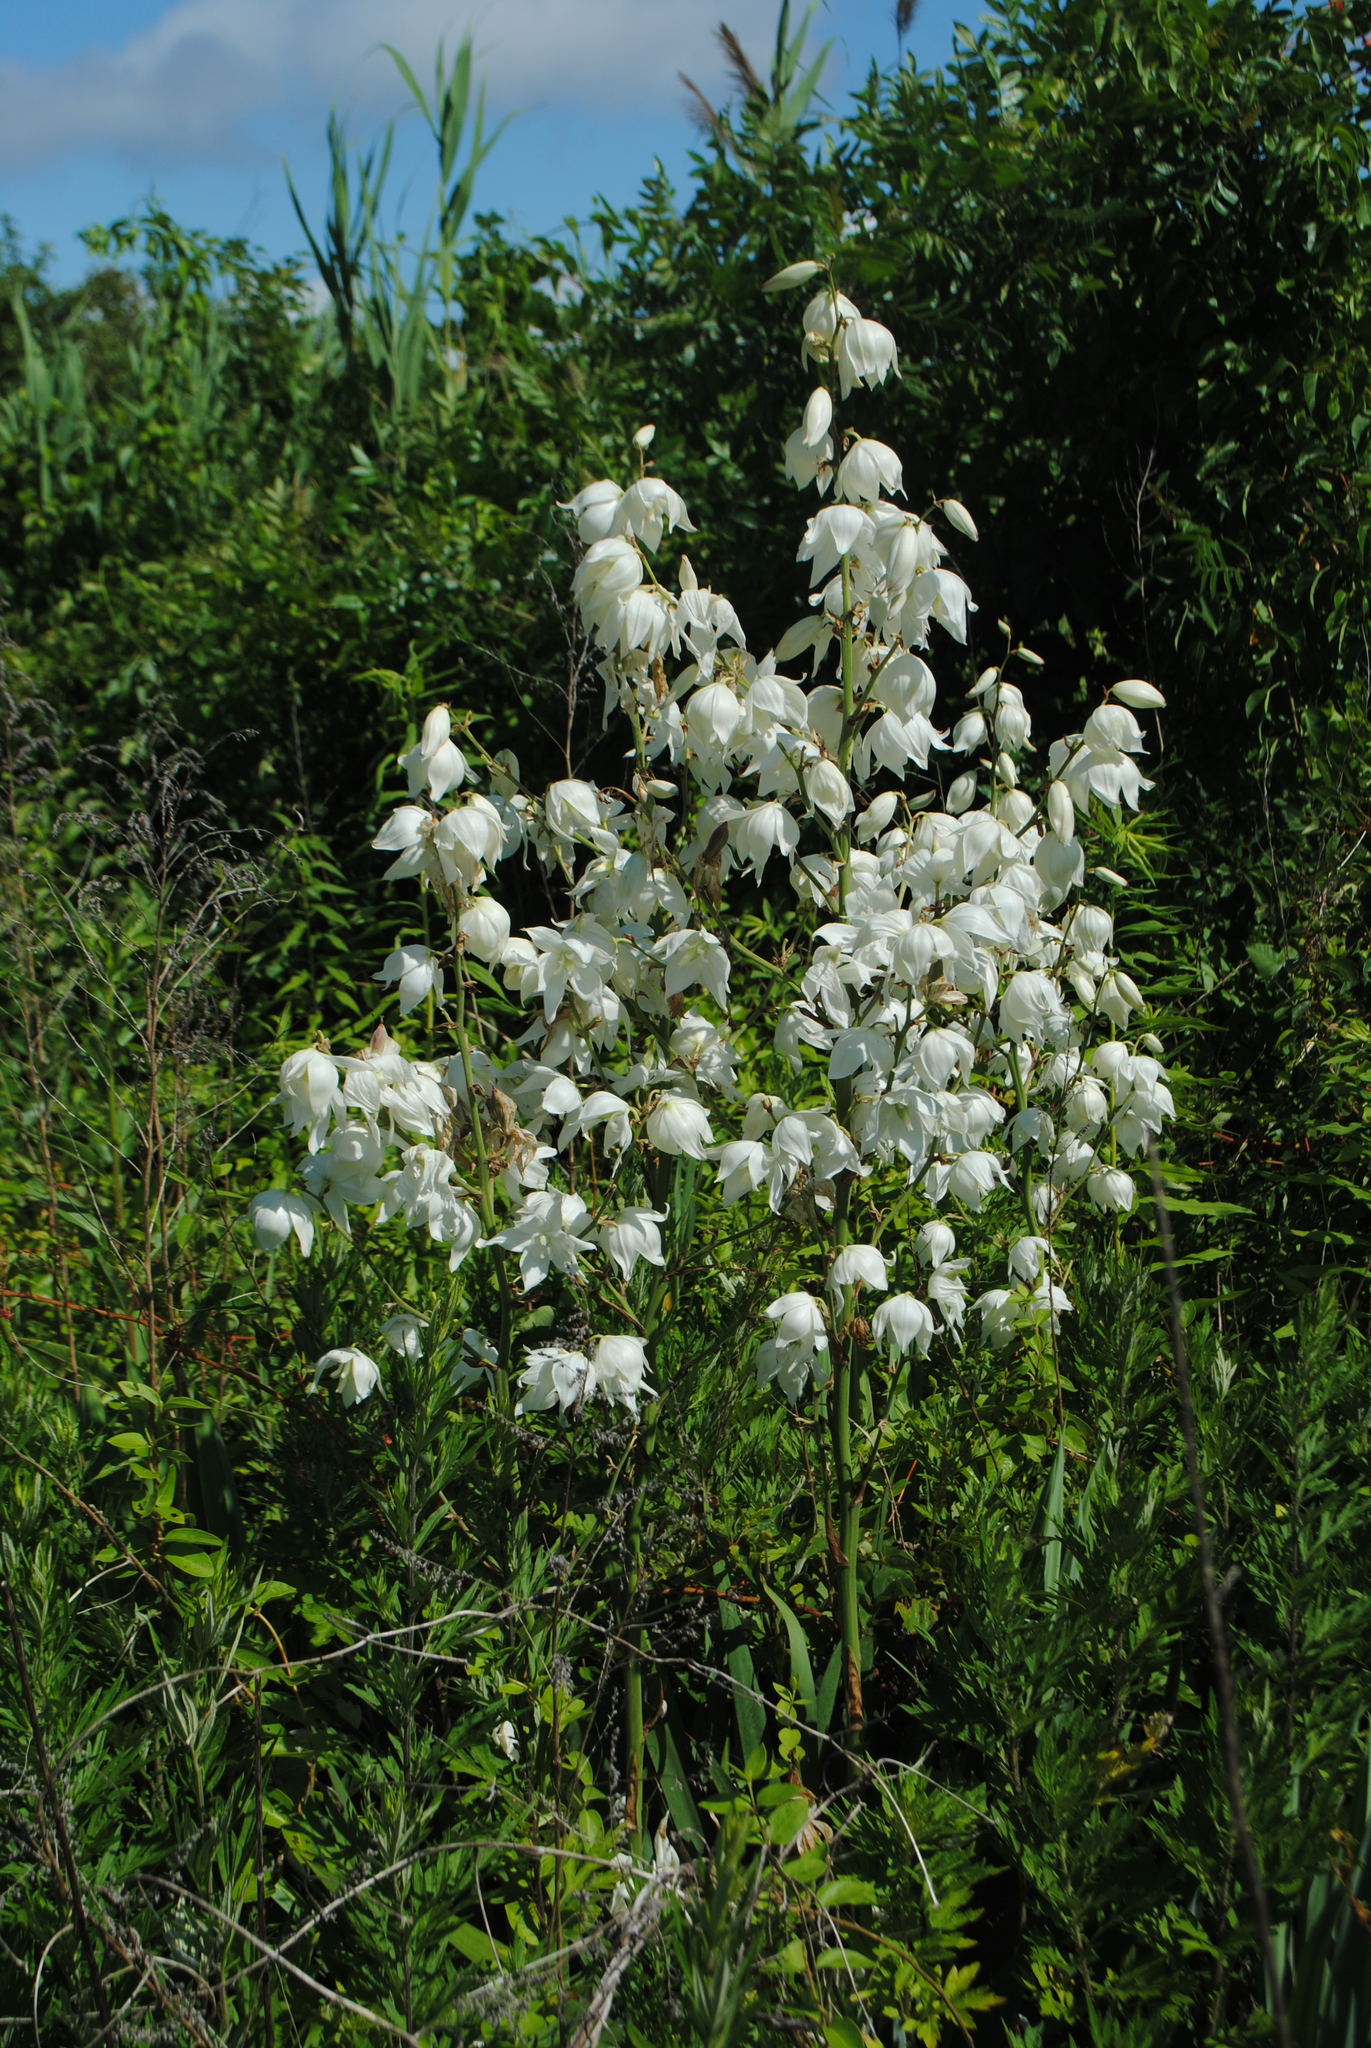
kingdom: Plantae
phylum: Tracheophyta
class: Liliopsida
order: Asparagales
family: Asparagaceae
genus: Yucca
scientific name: Yucca filamentosa
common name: Adam's-needle
